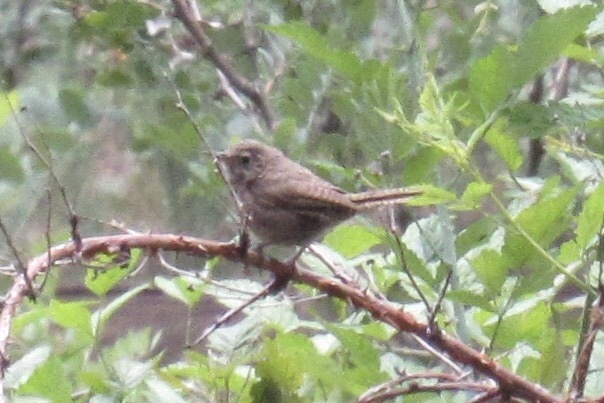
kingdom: Animalia
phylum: Chordata
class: Aves
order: Passeriformes
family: Troglodytidae
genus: Troglodytes
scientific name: Troglodytes aedon
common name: House wren
